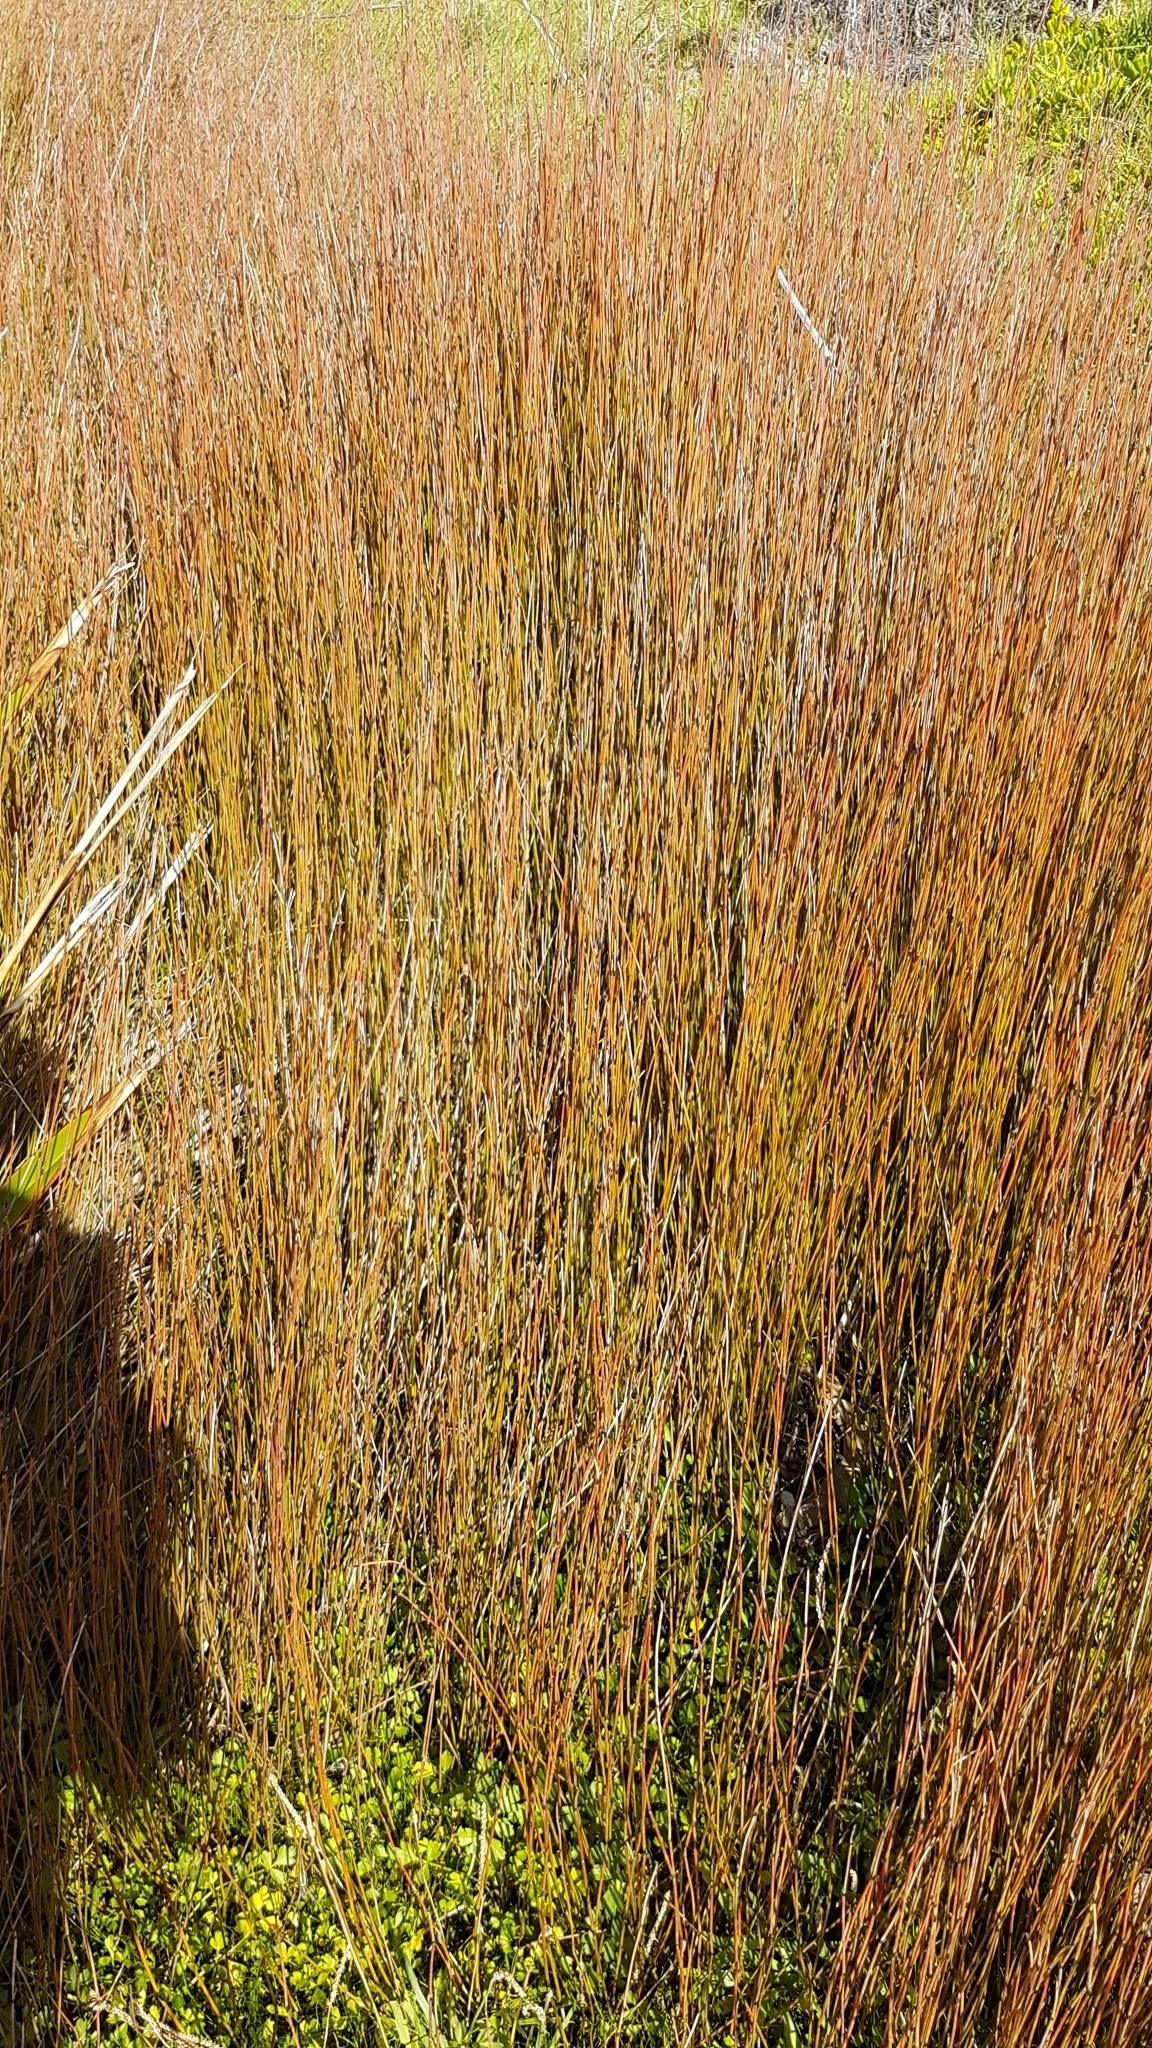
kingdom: Plantae
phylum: Tracheophyta
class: Liliopsida
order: Poales
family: Restionaceae
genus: Apodasmia
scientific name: Apodasmia similis
